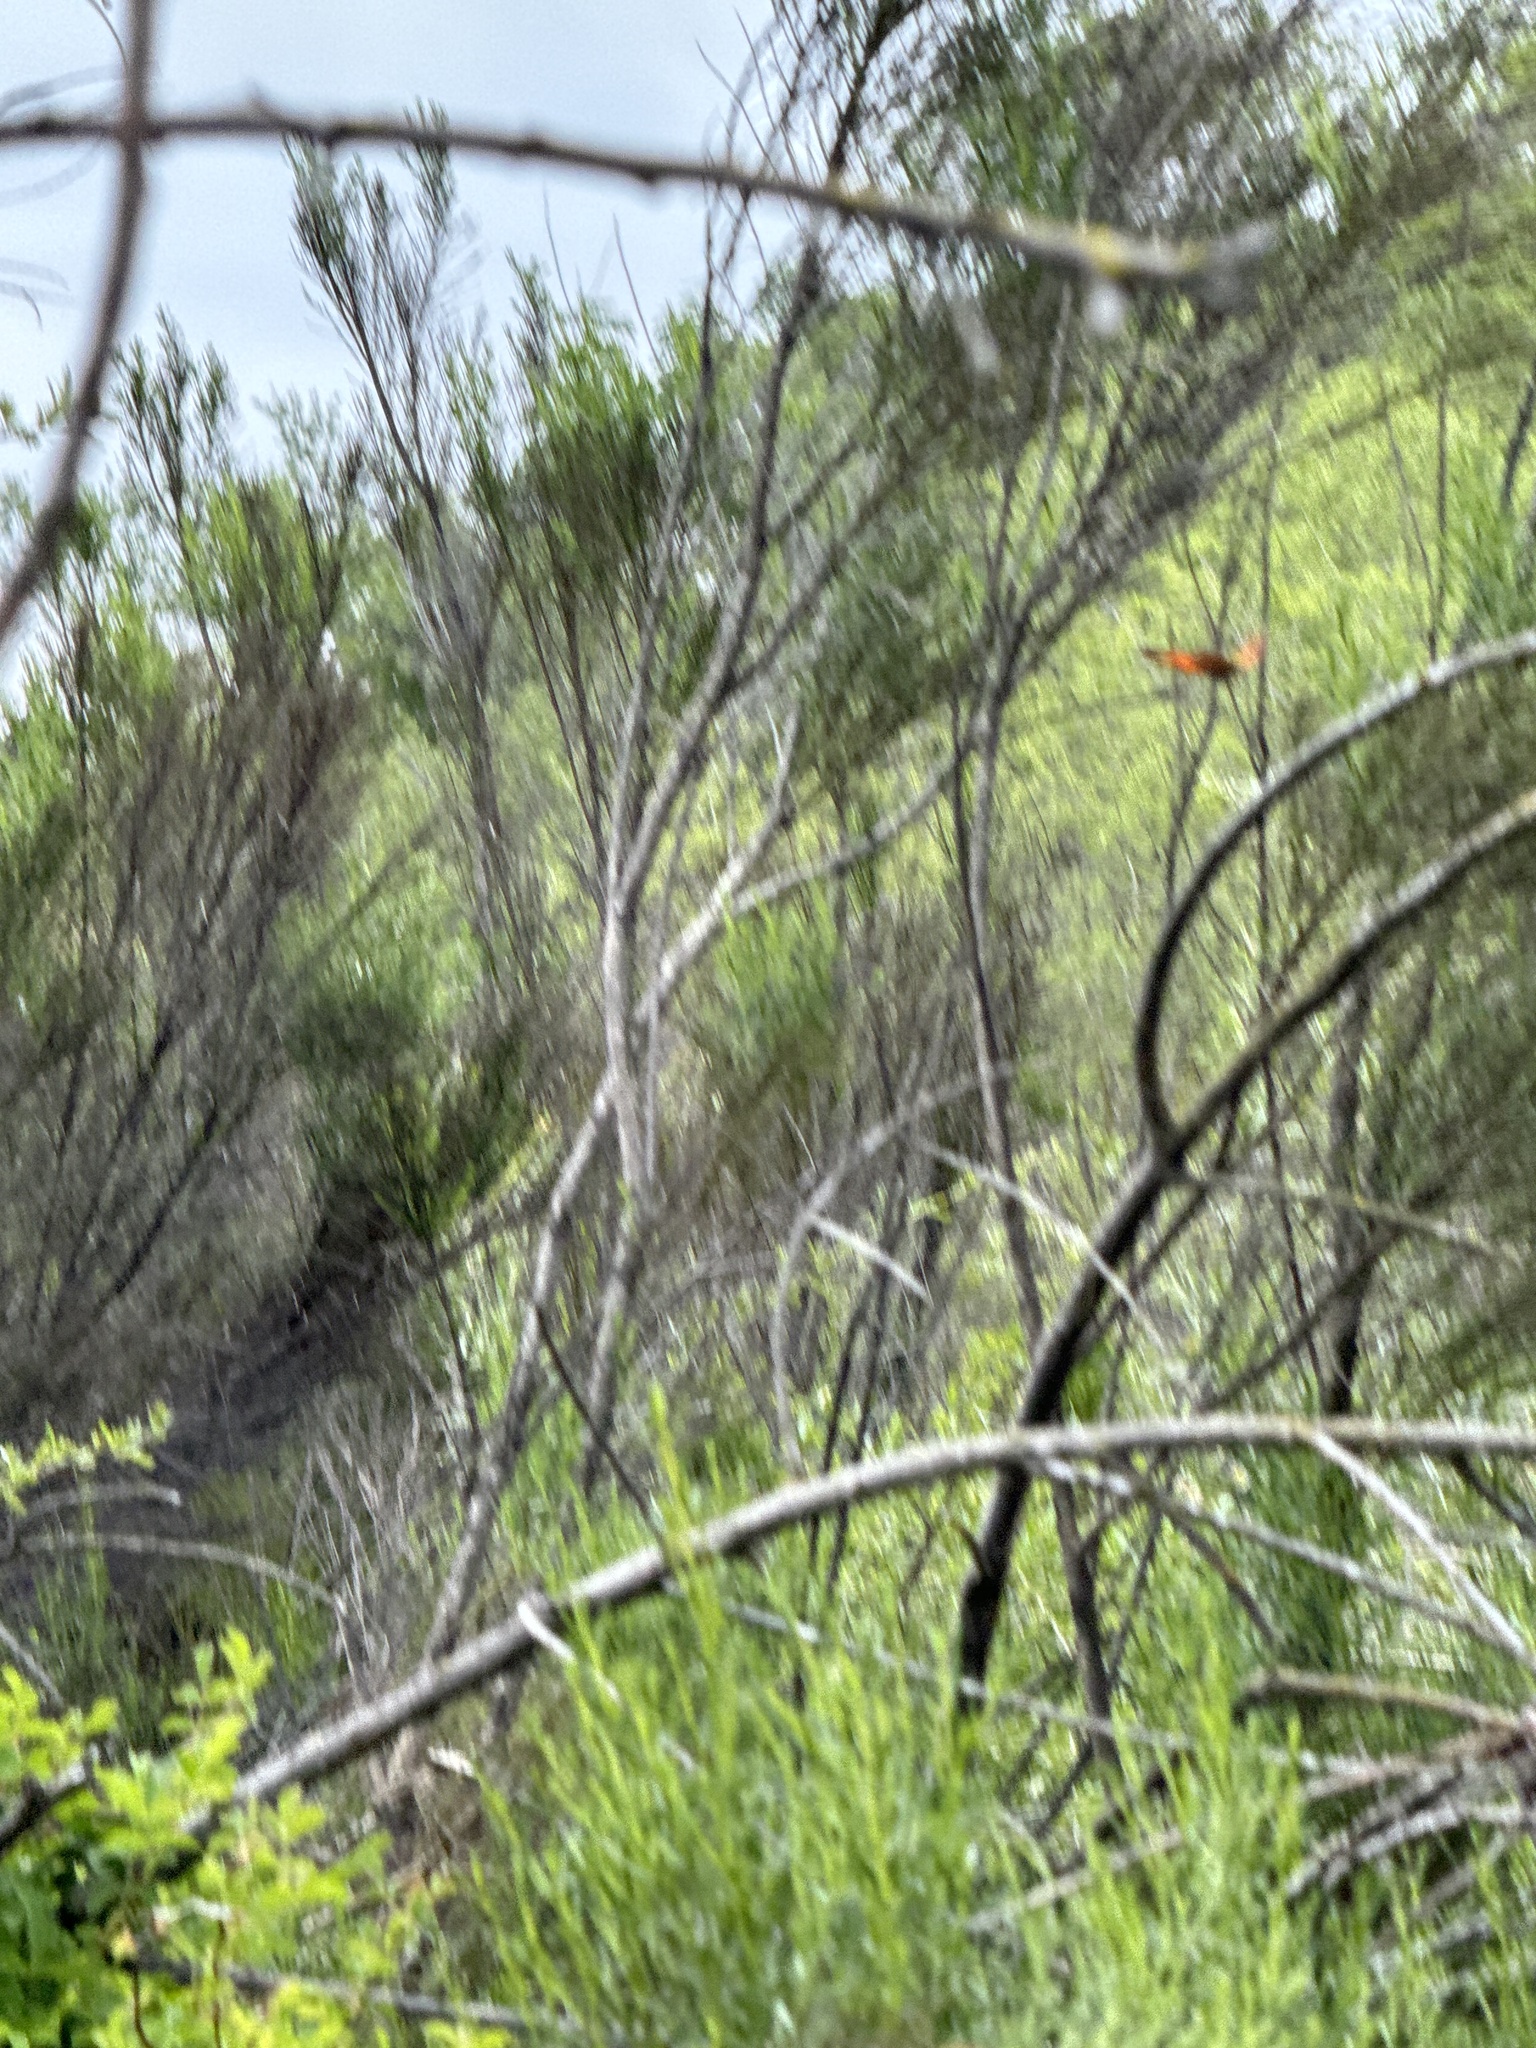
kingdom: Animalia
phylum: Arthropoda
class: Insecta
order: Lepidoptera
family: Nymphalidae
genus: Vanessa
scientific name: Vanessa cardui
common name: Painted lady
